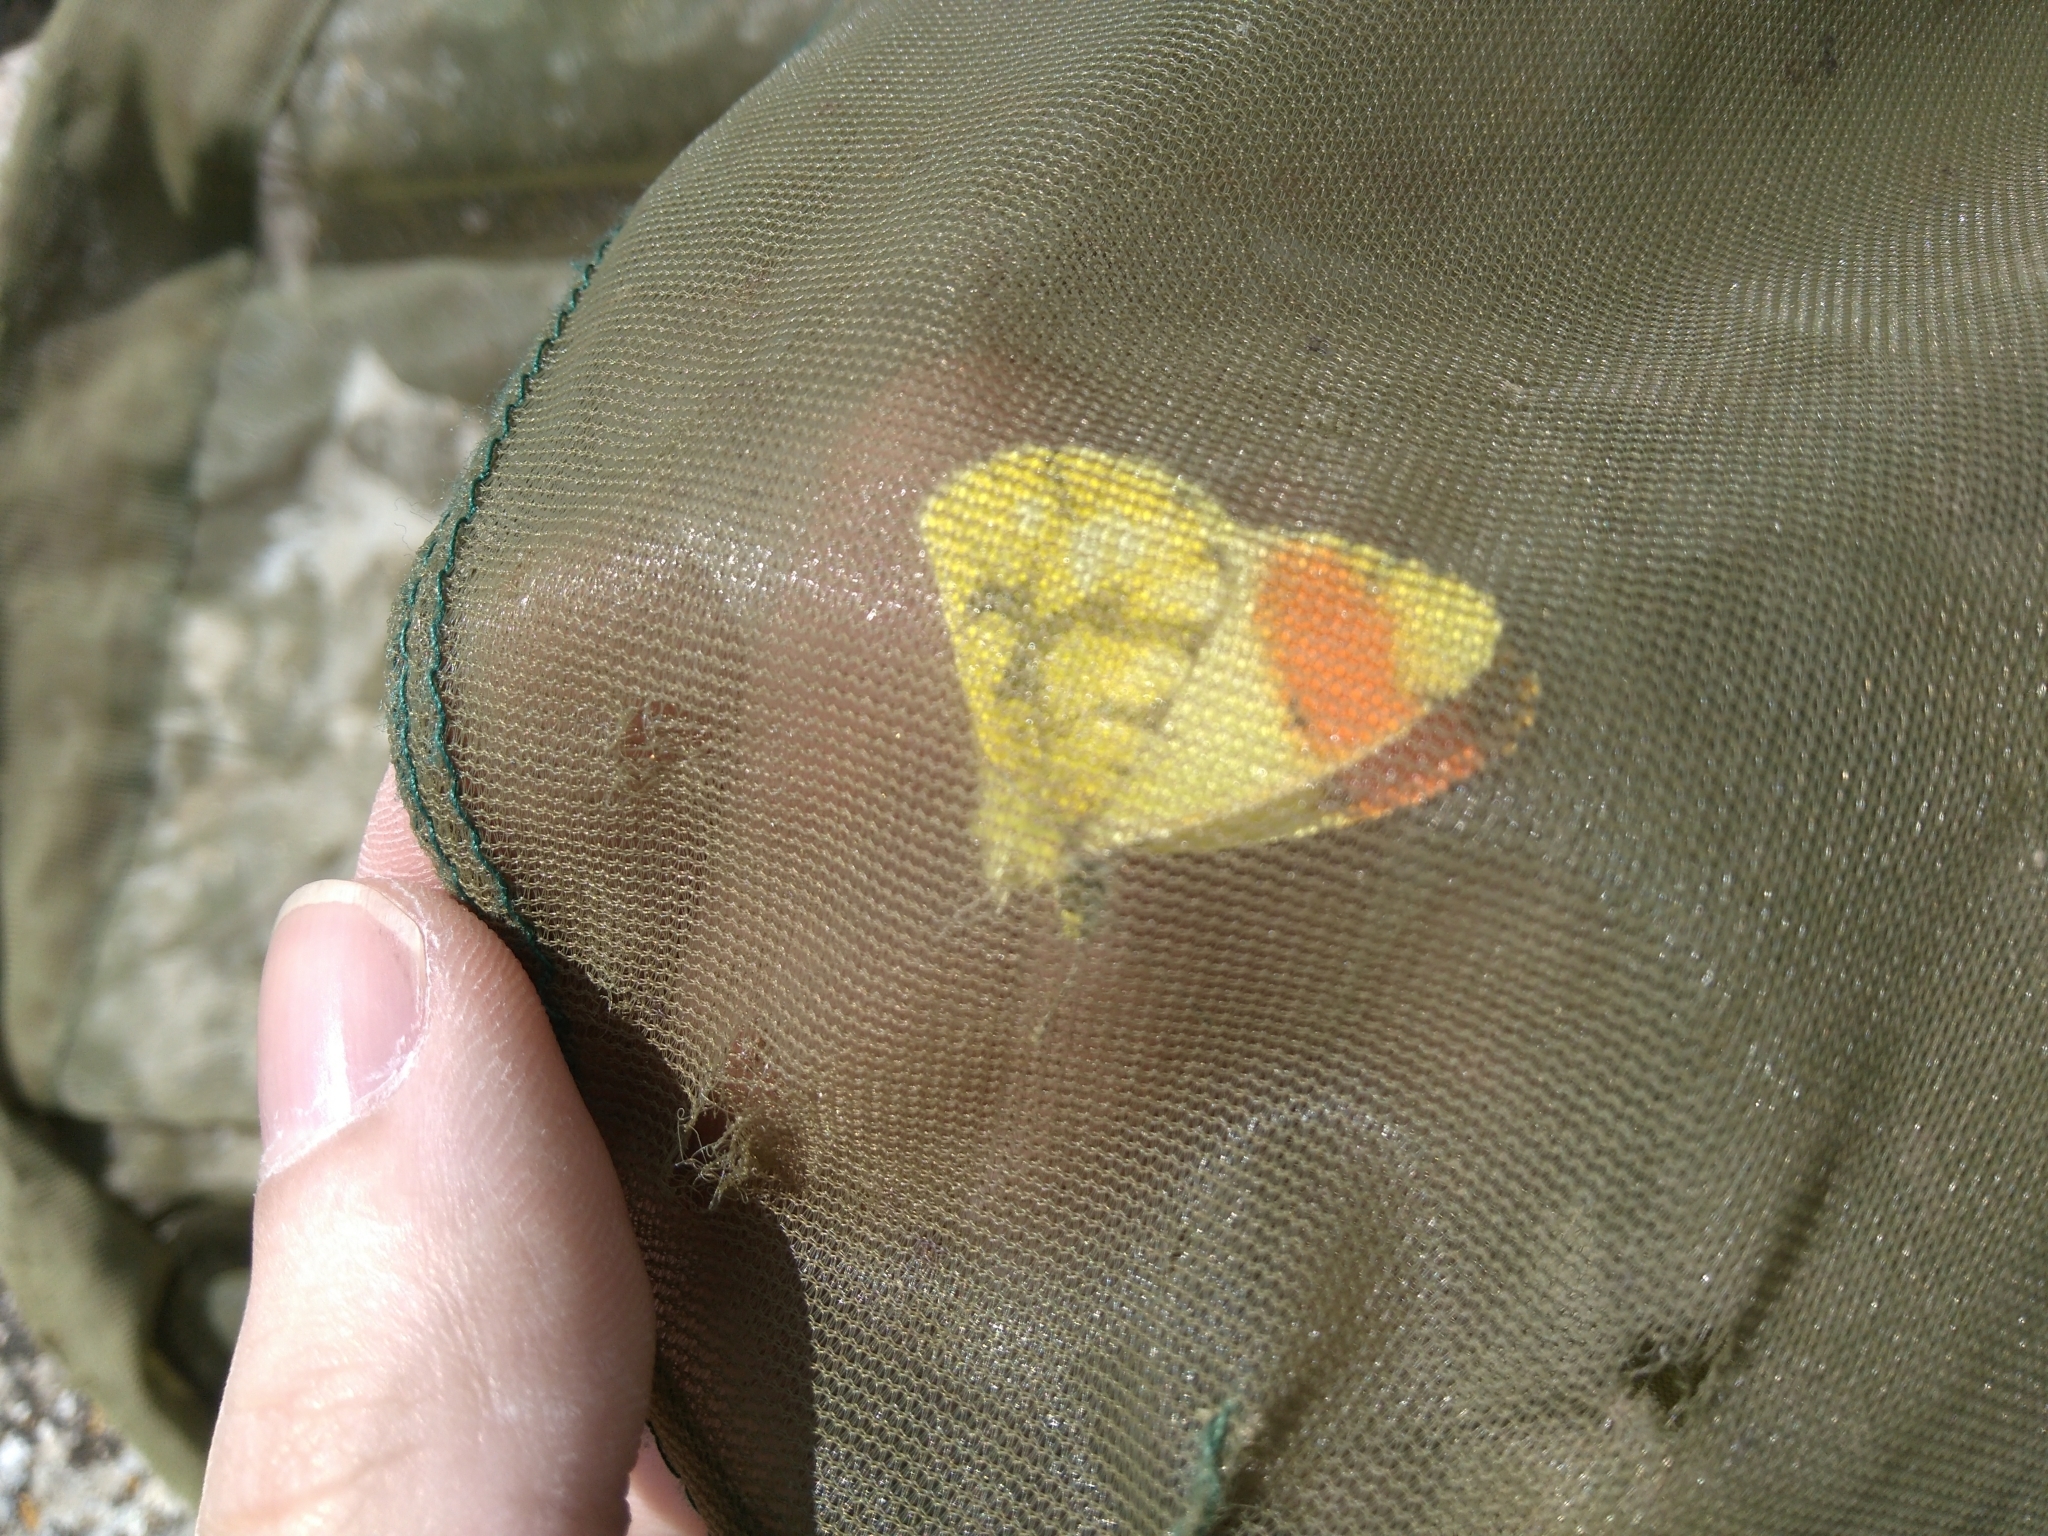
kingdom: Animalia
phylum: Arthropoda
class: Insecta
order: Lepidoptera
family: Pieridae
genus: Anthocharis
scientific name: Anthocharis euphenoides
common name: Provence orange-tip
